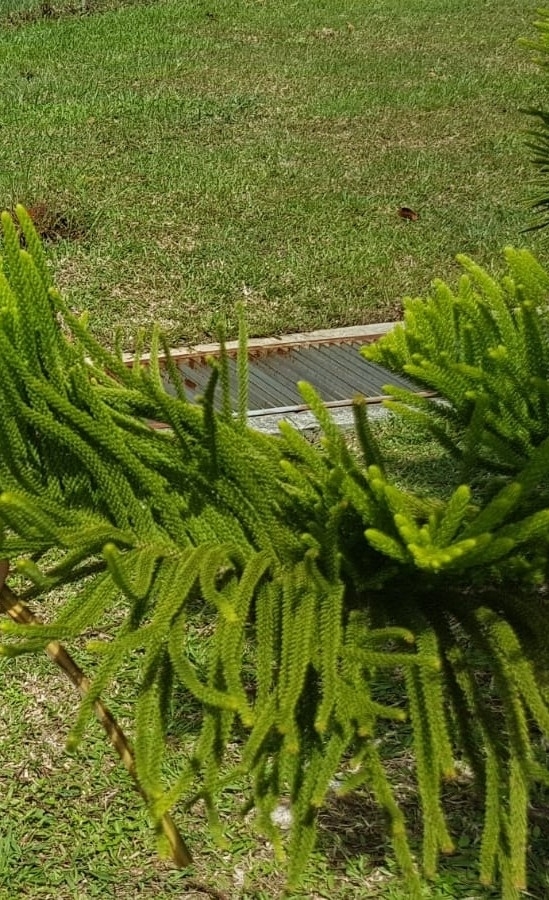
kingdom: Plantae
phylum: Tracheophyta
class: Pinopsida
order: Pinales
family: Araucariaceae
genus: Araucaria
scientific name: Araucaria heterophylla
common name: Norfolk island pine
